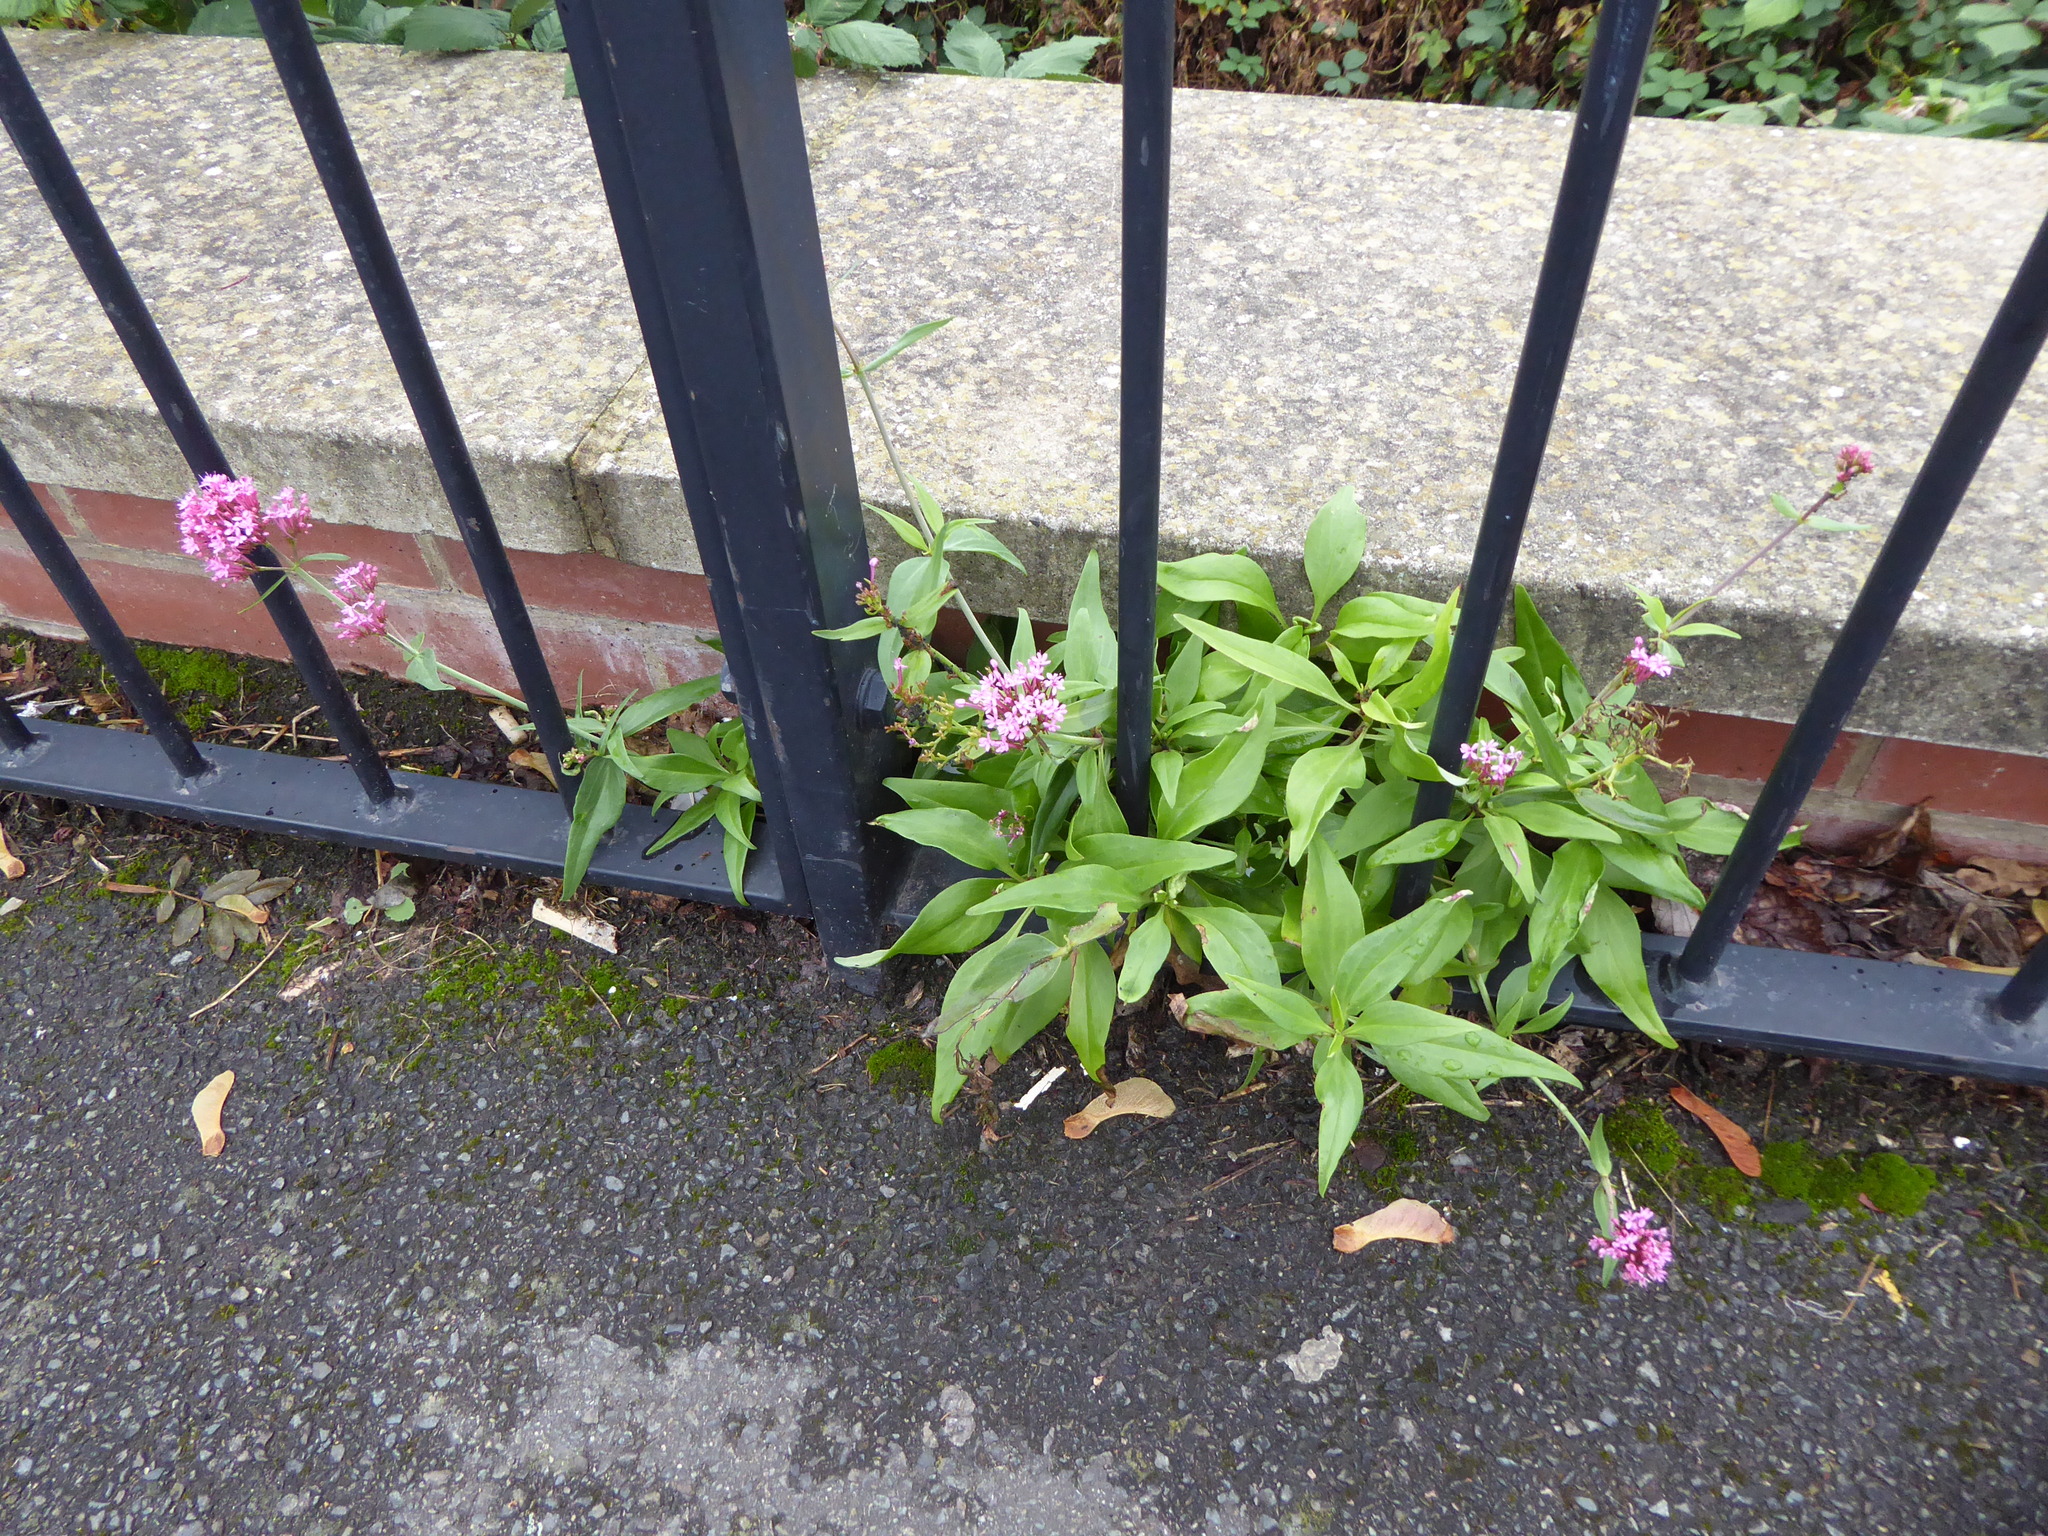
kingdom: Plantae
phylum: Tracheophyta
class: Magnoliopsida
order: Dipsacales
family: Caprifoliaceae
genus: Centranthus
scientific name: Centranthus ruber
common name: Red valerian
